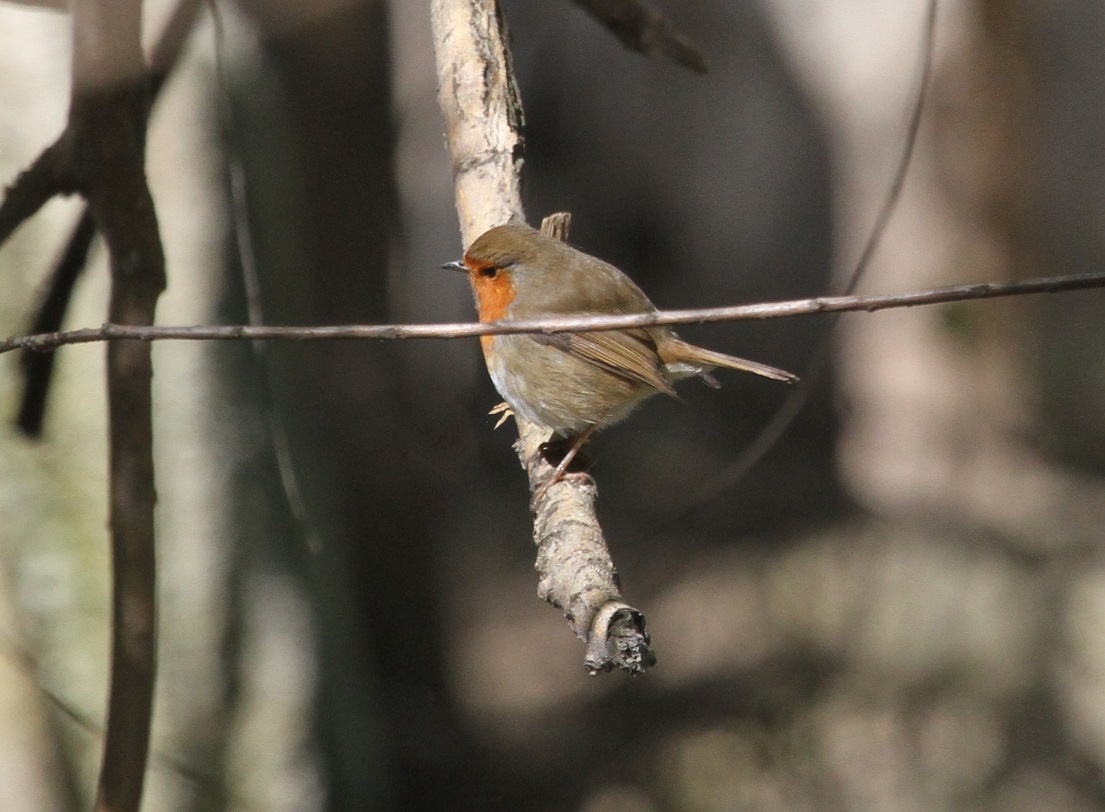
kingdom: Animalia
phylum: Chordata
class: Aves
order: Passeriformes
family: Muscicapidae
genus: Erithacus
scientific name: Erithacus rubecula
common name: European robin
